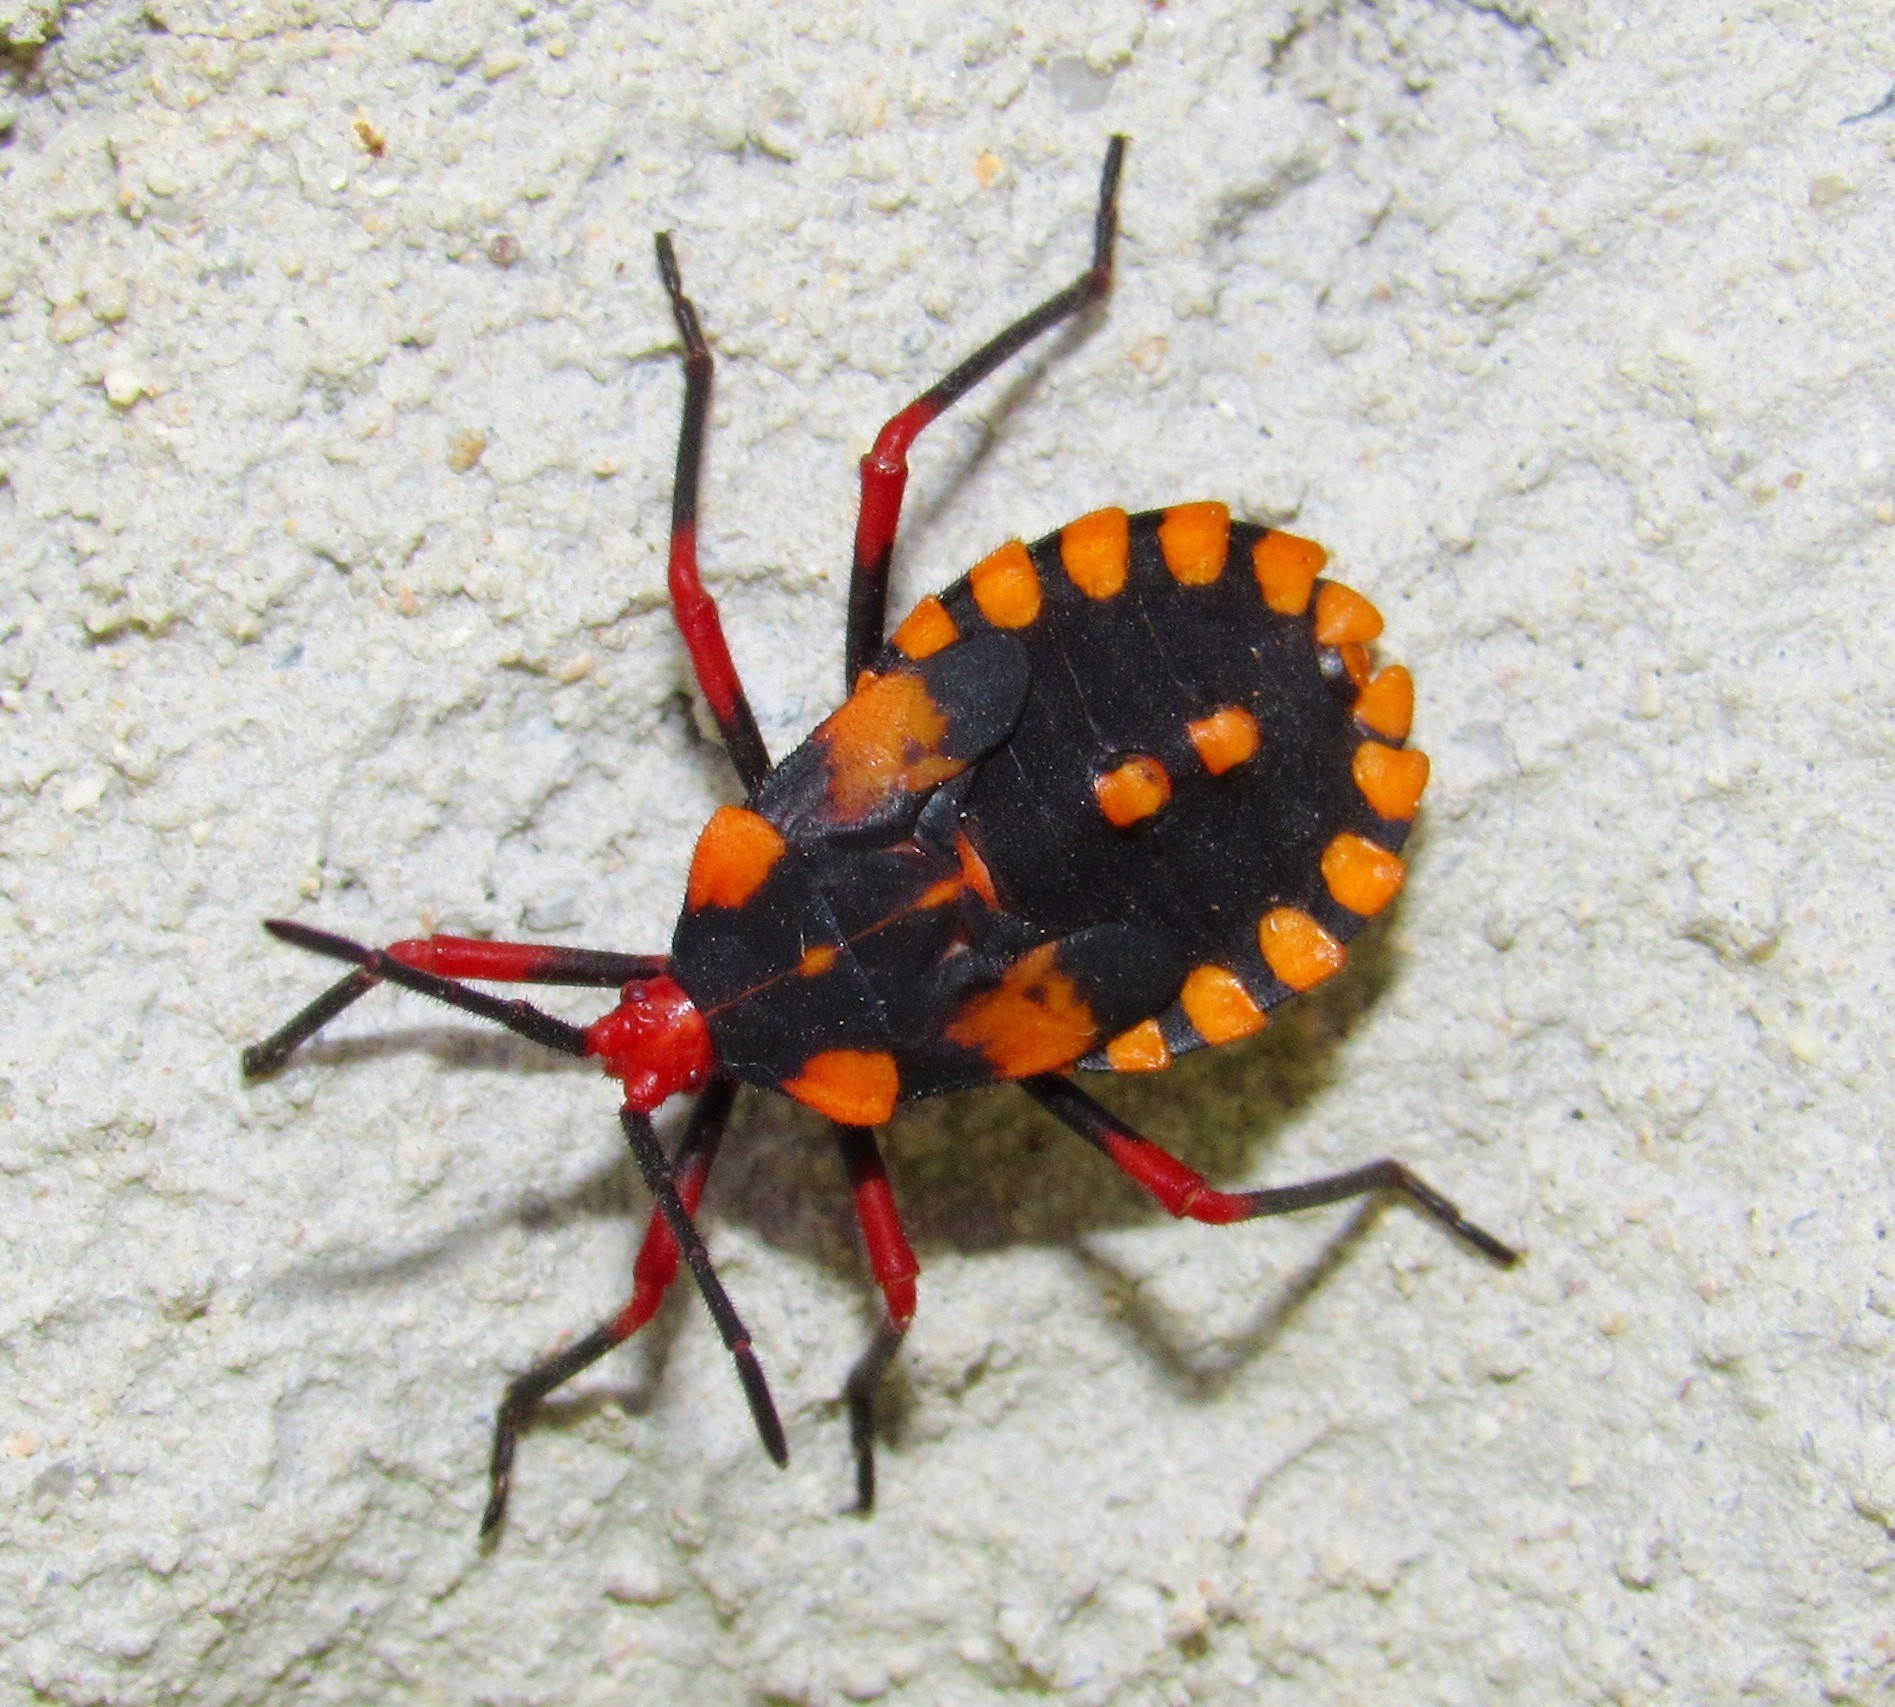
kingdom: Animalia
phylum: Arthropoda
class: Insecta
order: Hemiptera
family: Coreidae
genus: Spartocera
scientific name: Spartocera fusca
